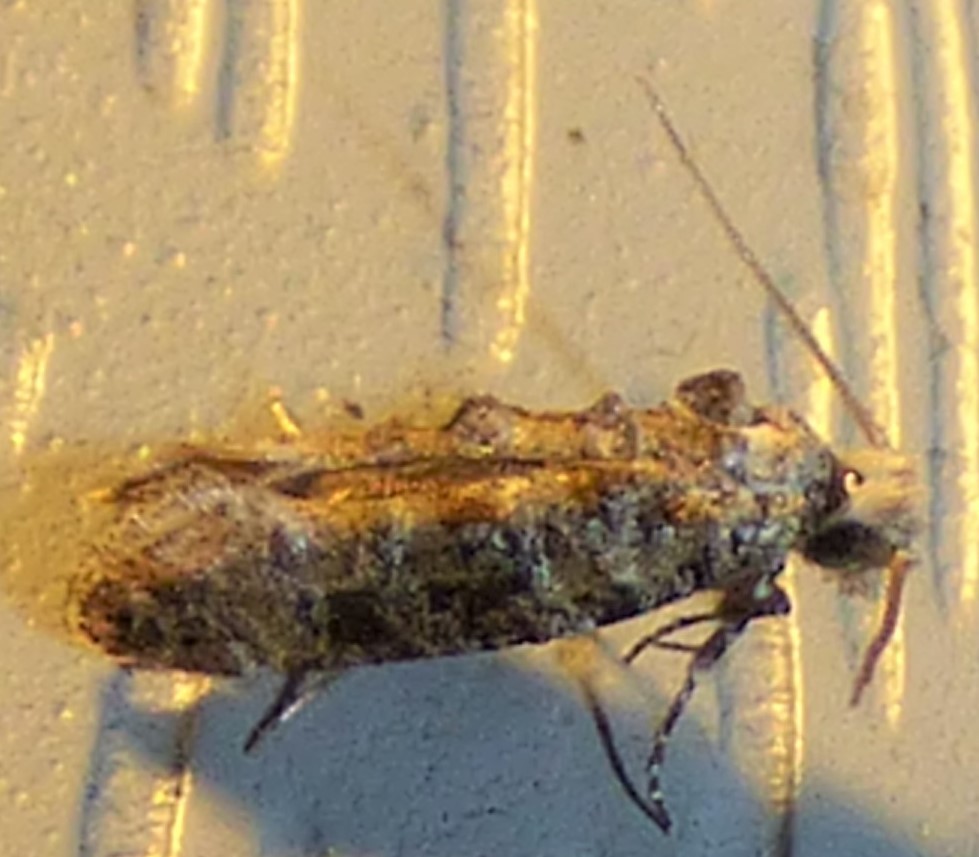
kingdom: Animalia
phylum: Arthropoda
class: Insecta
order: Lepidoptera
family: Tineidae
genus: Xylesthia
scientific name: Xylesthia pruniramiella
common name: Clemens' bark moth
